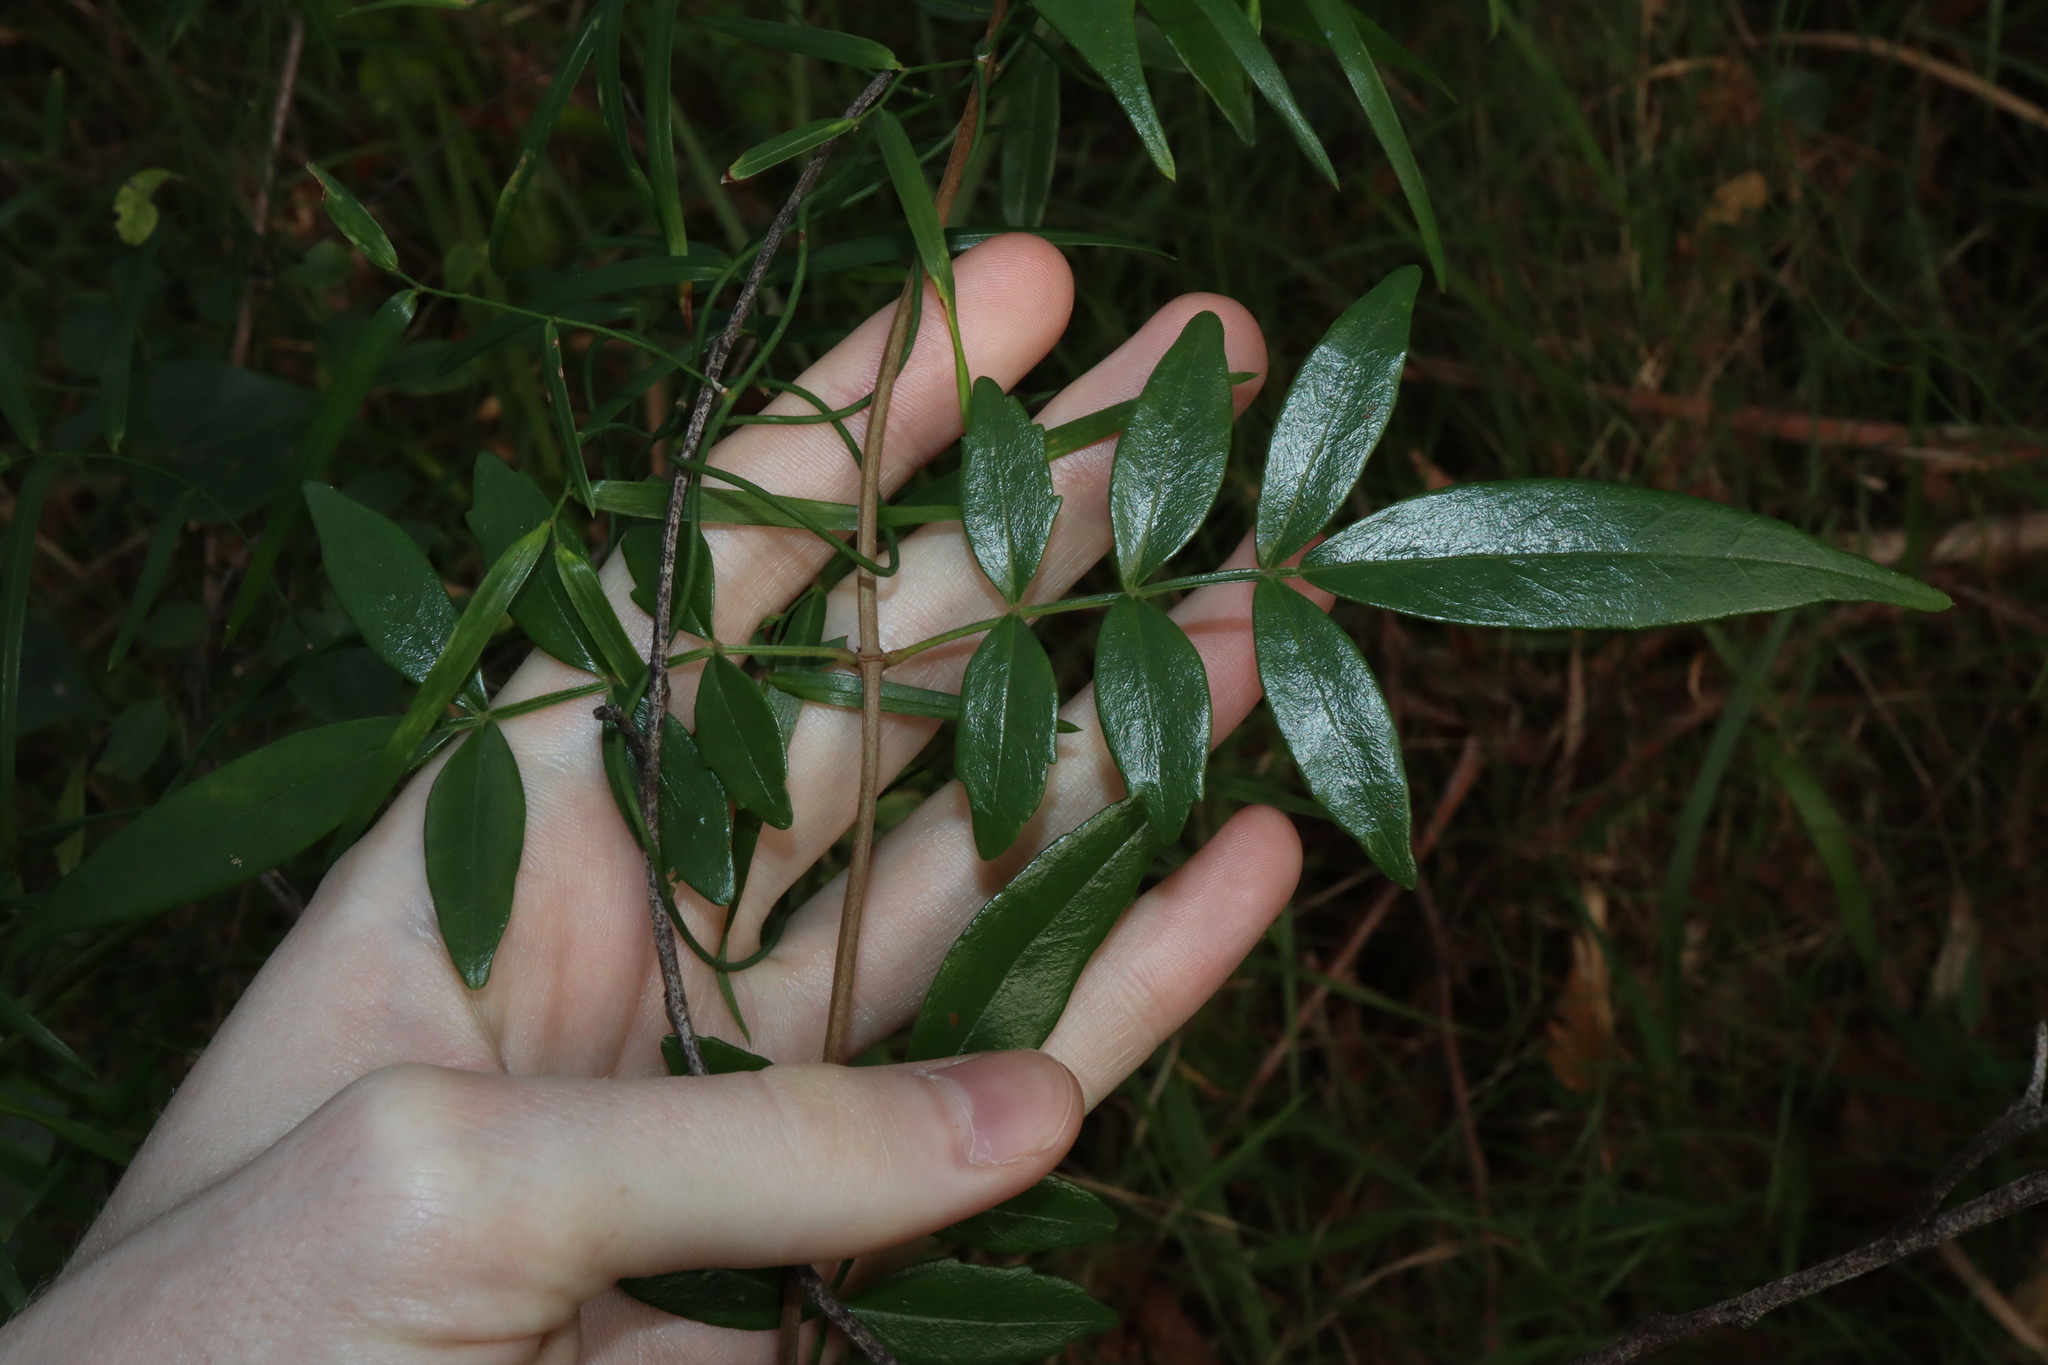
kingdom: Plantae
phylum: Tracheophyta
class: Magnoliopsida
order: Lamiales
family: Bignoniaceae
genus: Pandorea
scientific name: Pandorea pandorana
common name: Wonga-wonga-vine
